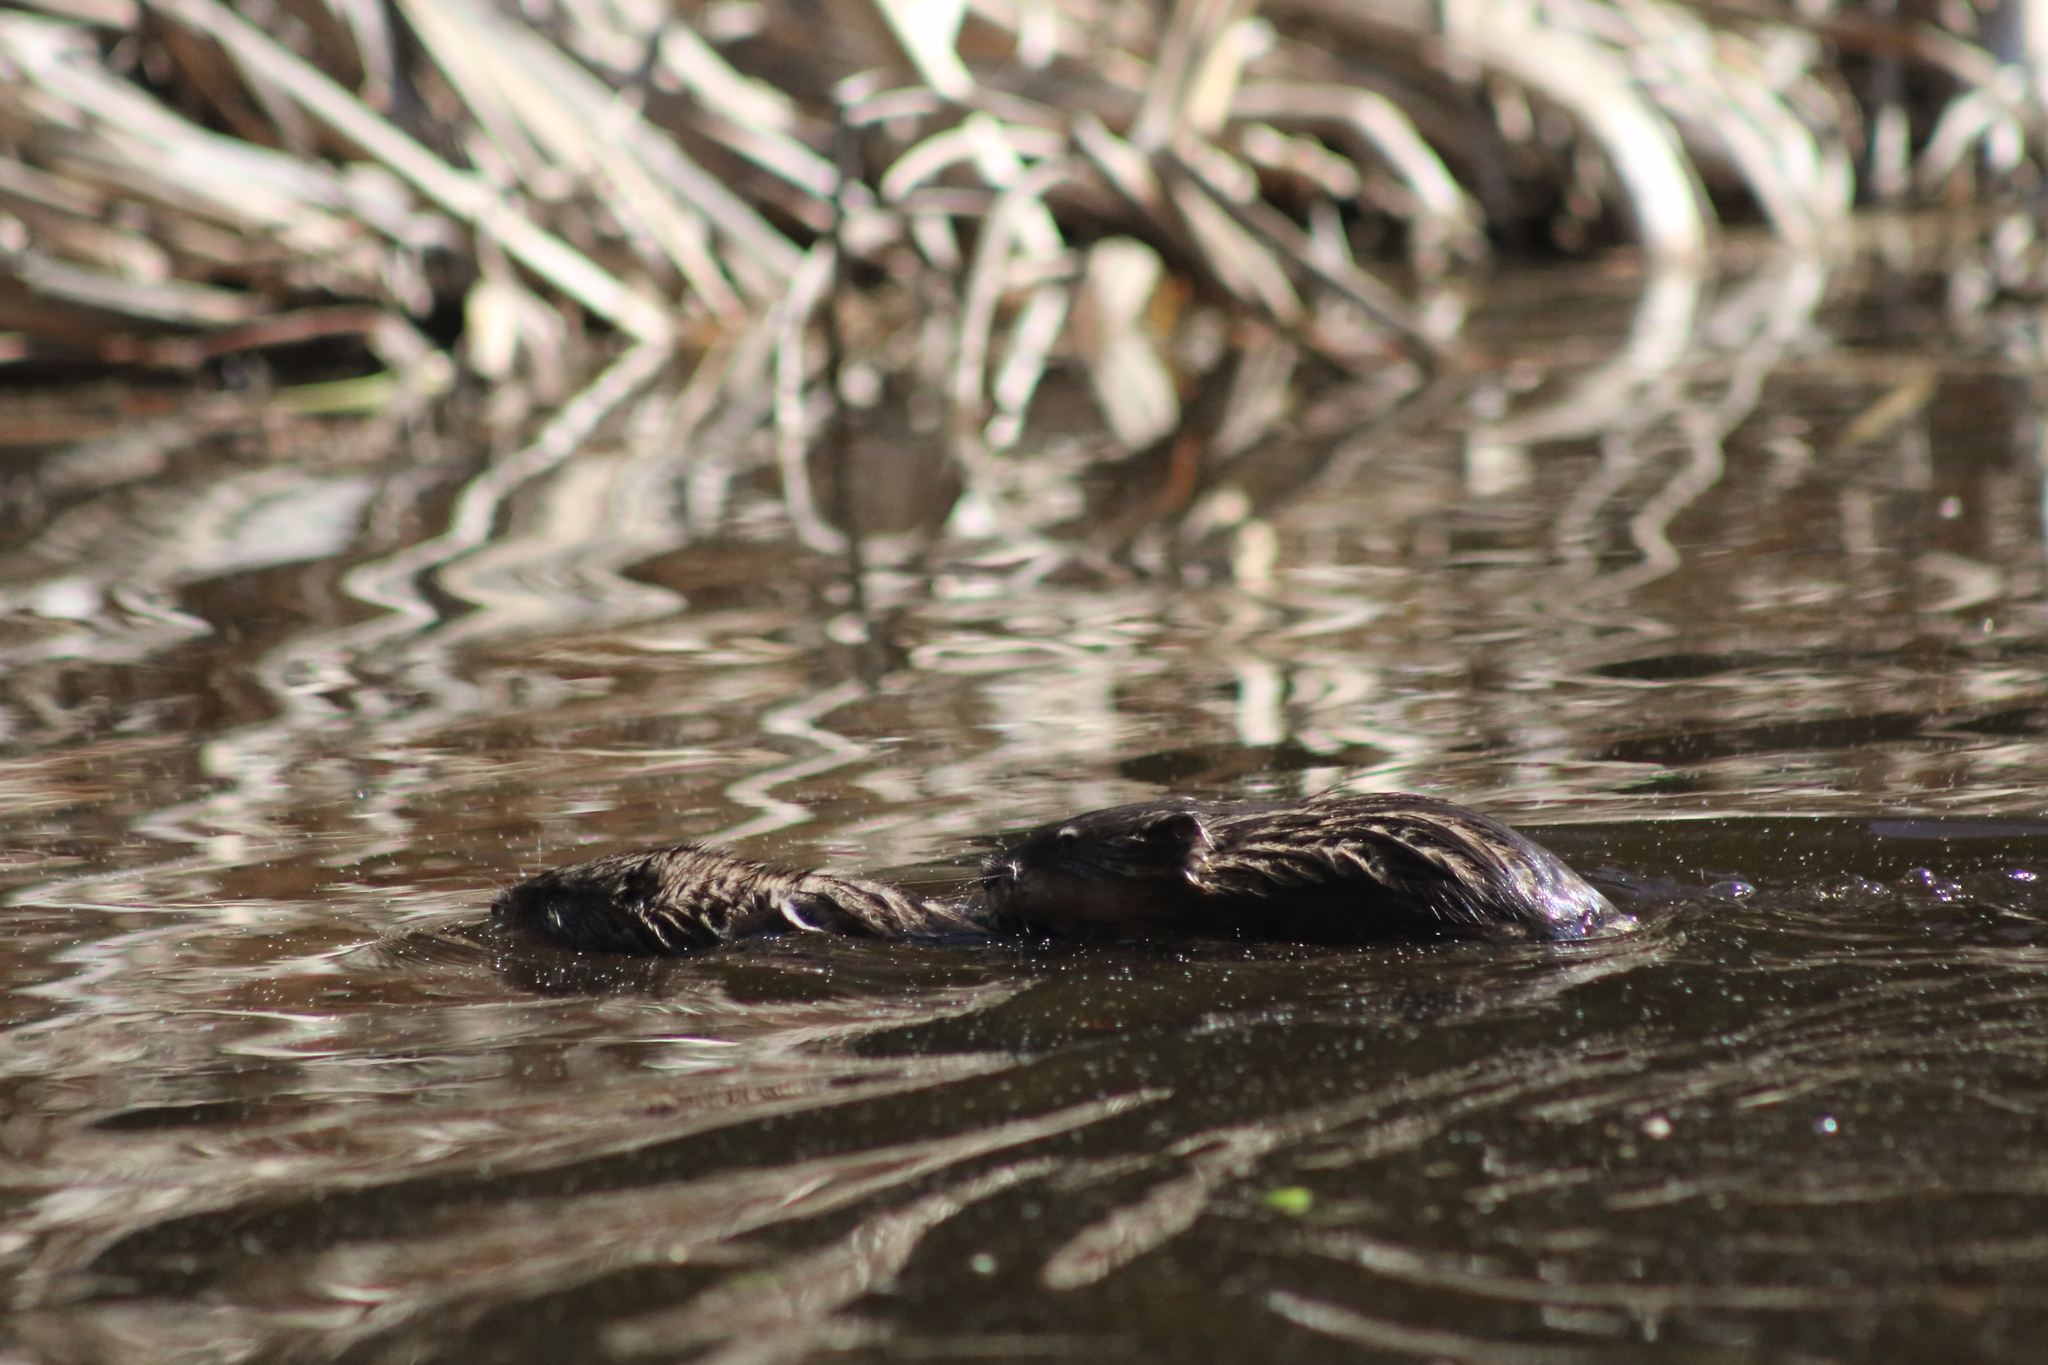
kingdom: Animalia
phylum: Chordata
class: Mammalia
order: Rodentia
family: Cricetidae
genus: Ondatra
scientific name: Ondatra zibethicus
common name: Muskrat
